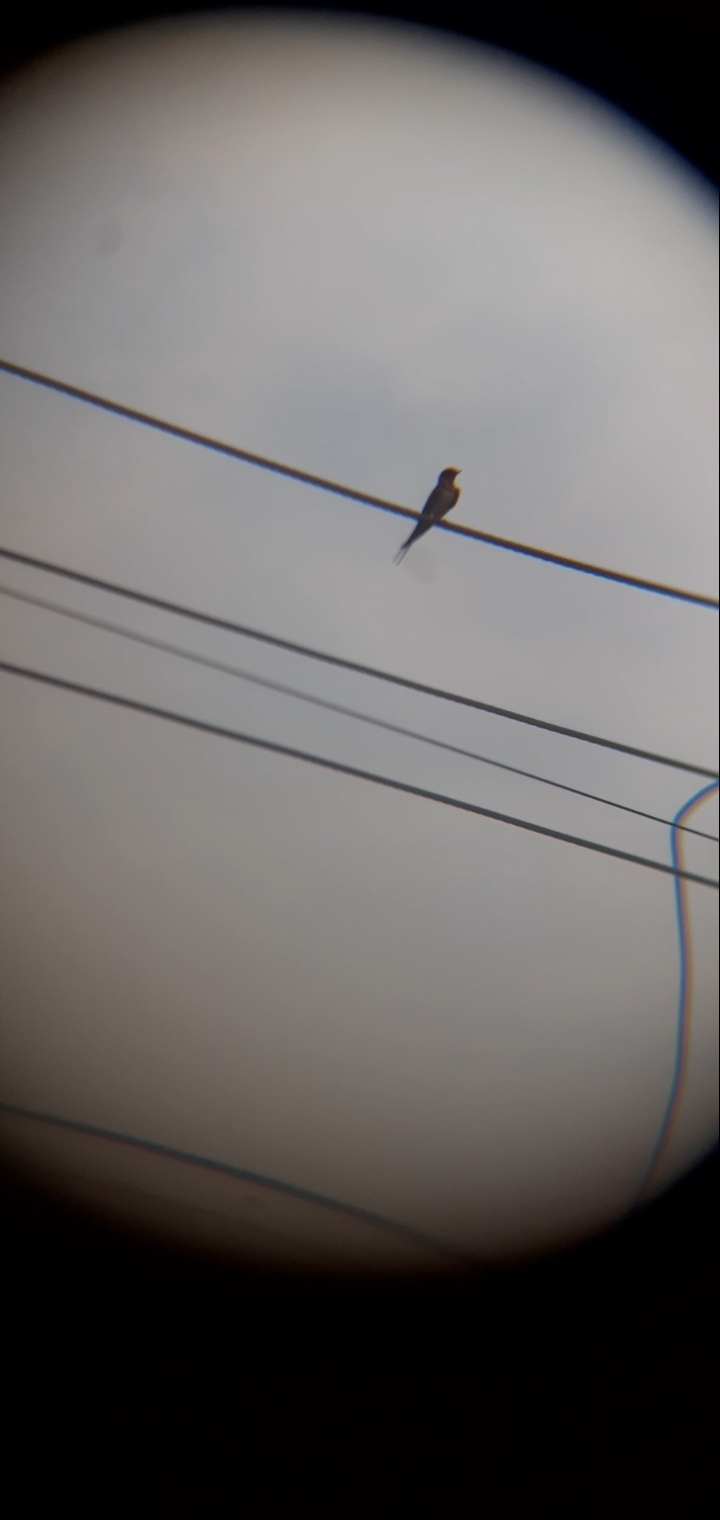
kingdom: Animalia
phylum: Chordata
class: Aves
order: Passeriformes
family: Hirundinidae
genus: Hirundo
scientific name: Hirundo rustica
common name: Barn swallow
